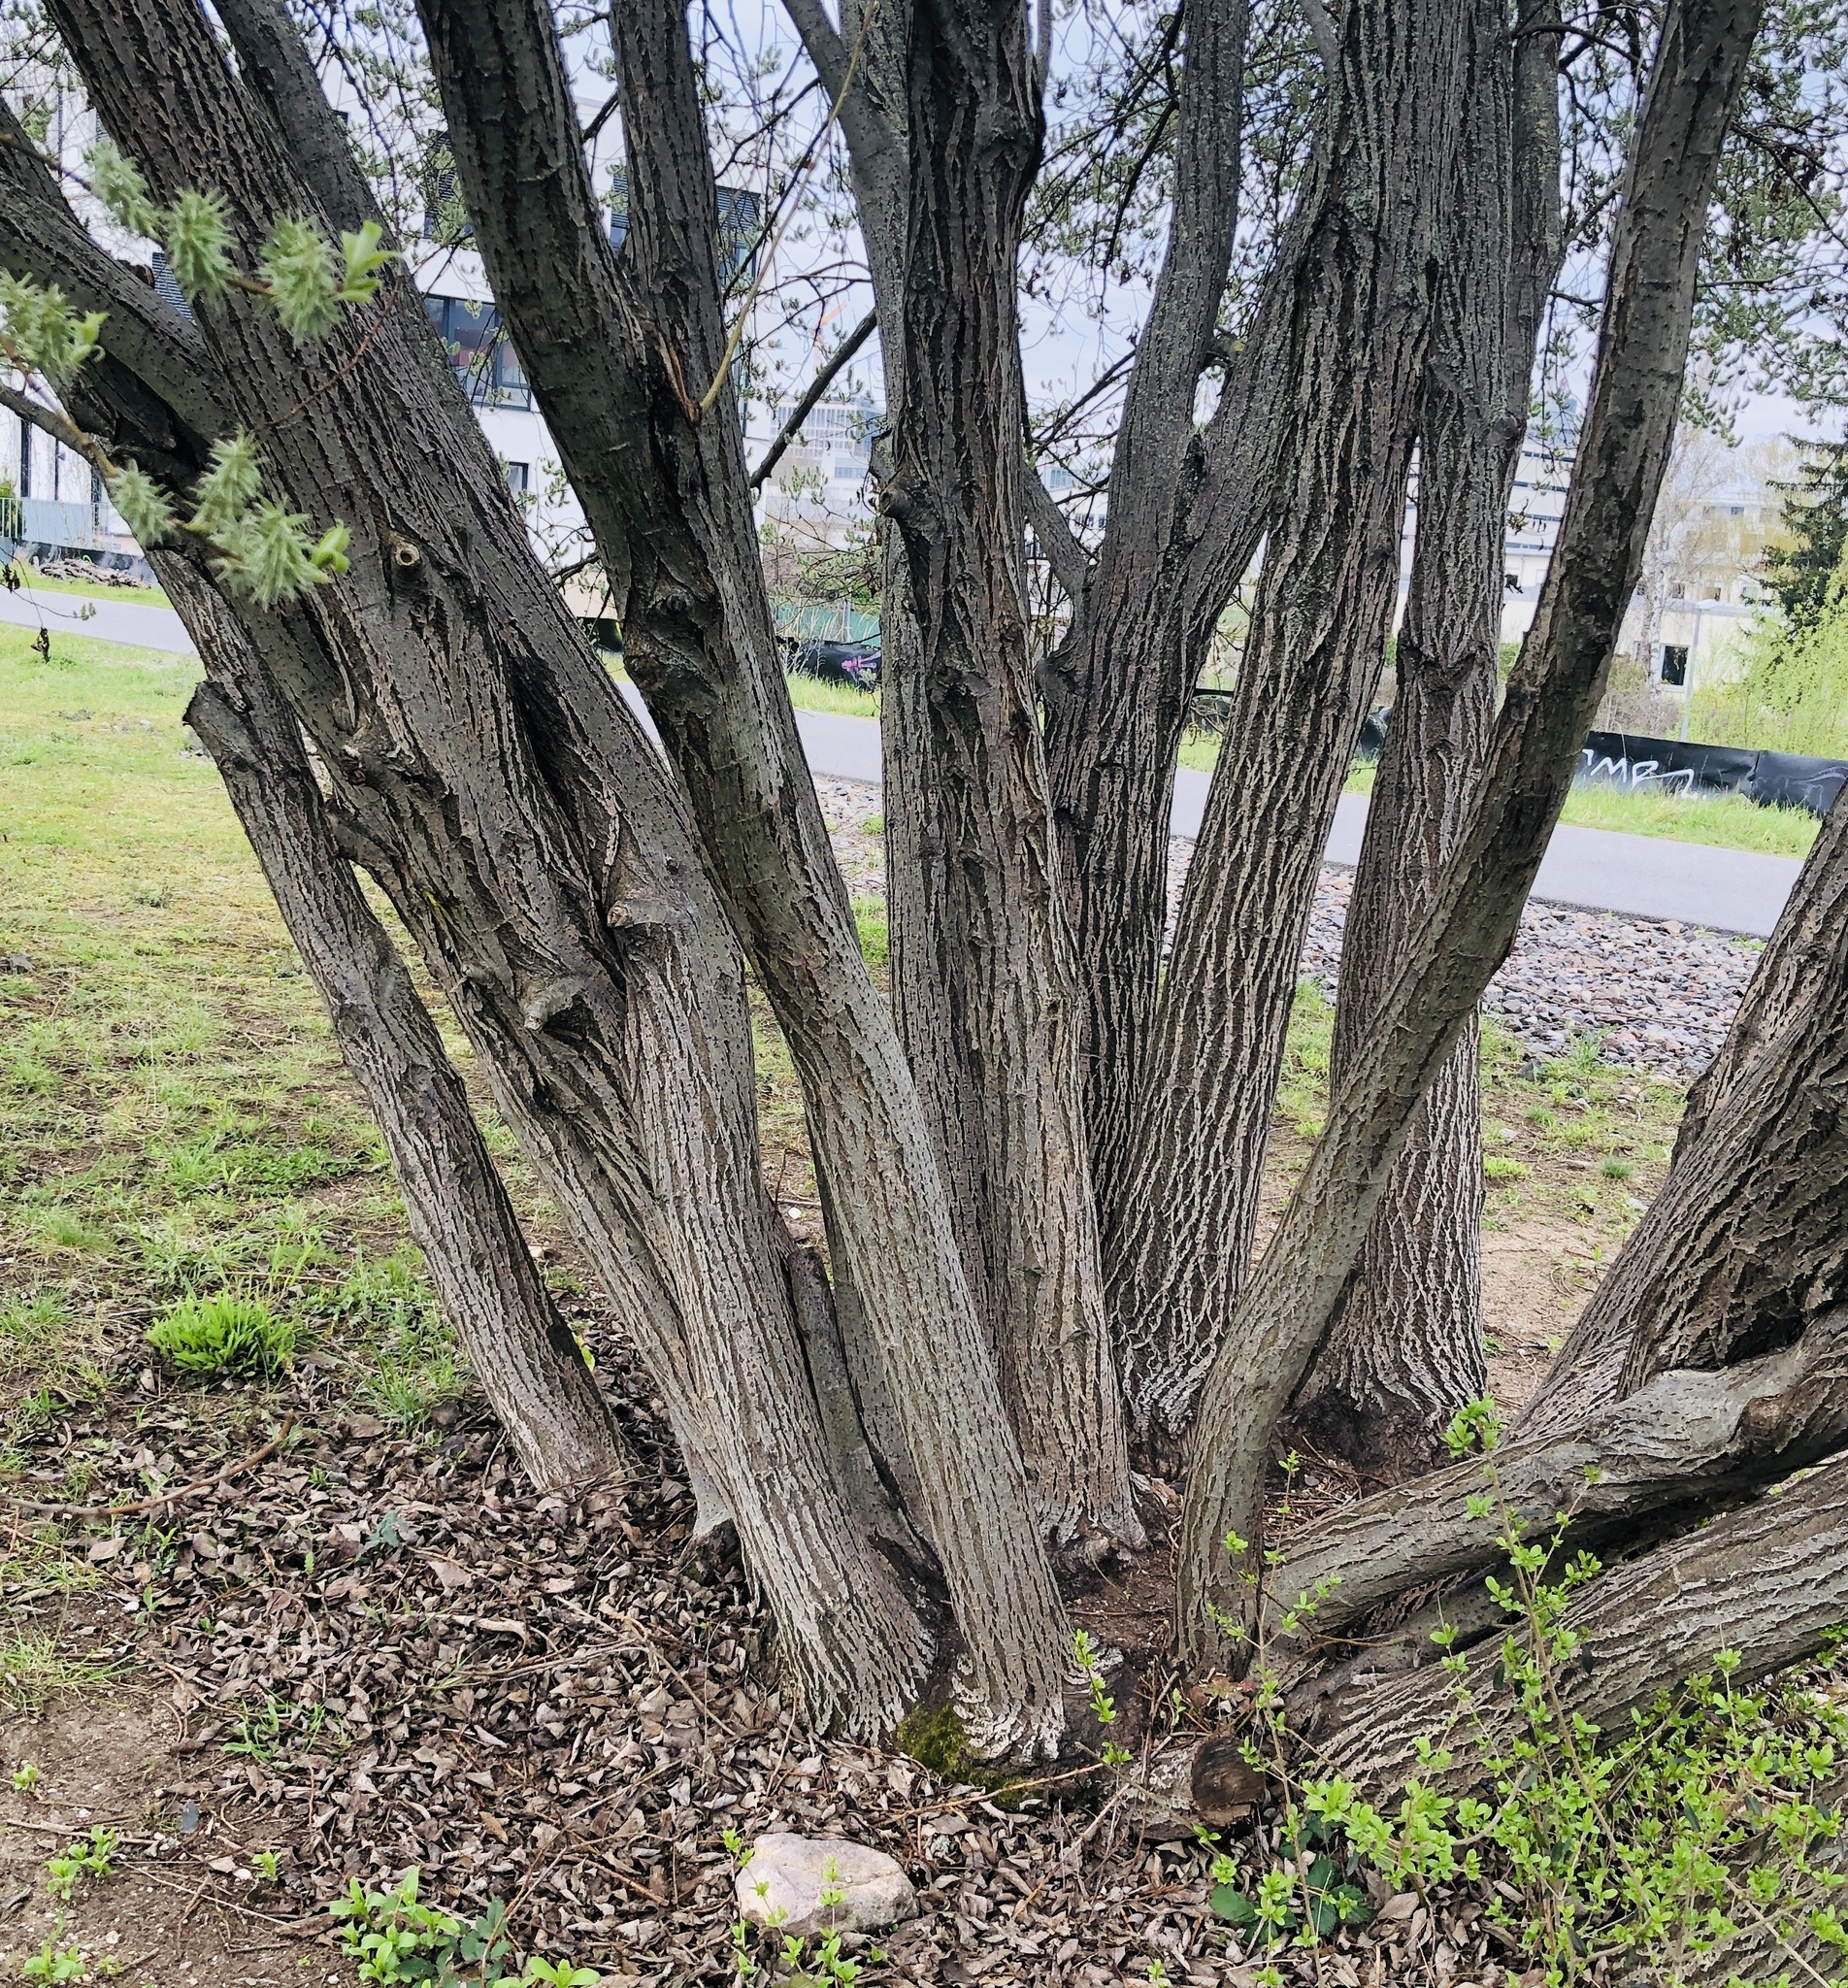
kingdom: Plantae
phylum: Tracheophyta
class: Magnoliopsida
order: Malpighiales
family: Salicaceae
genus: Salix
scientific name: Salix caprea
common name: Goat willow
